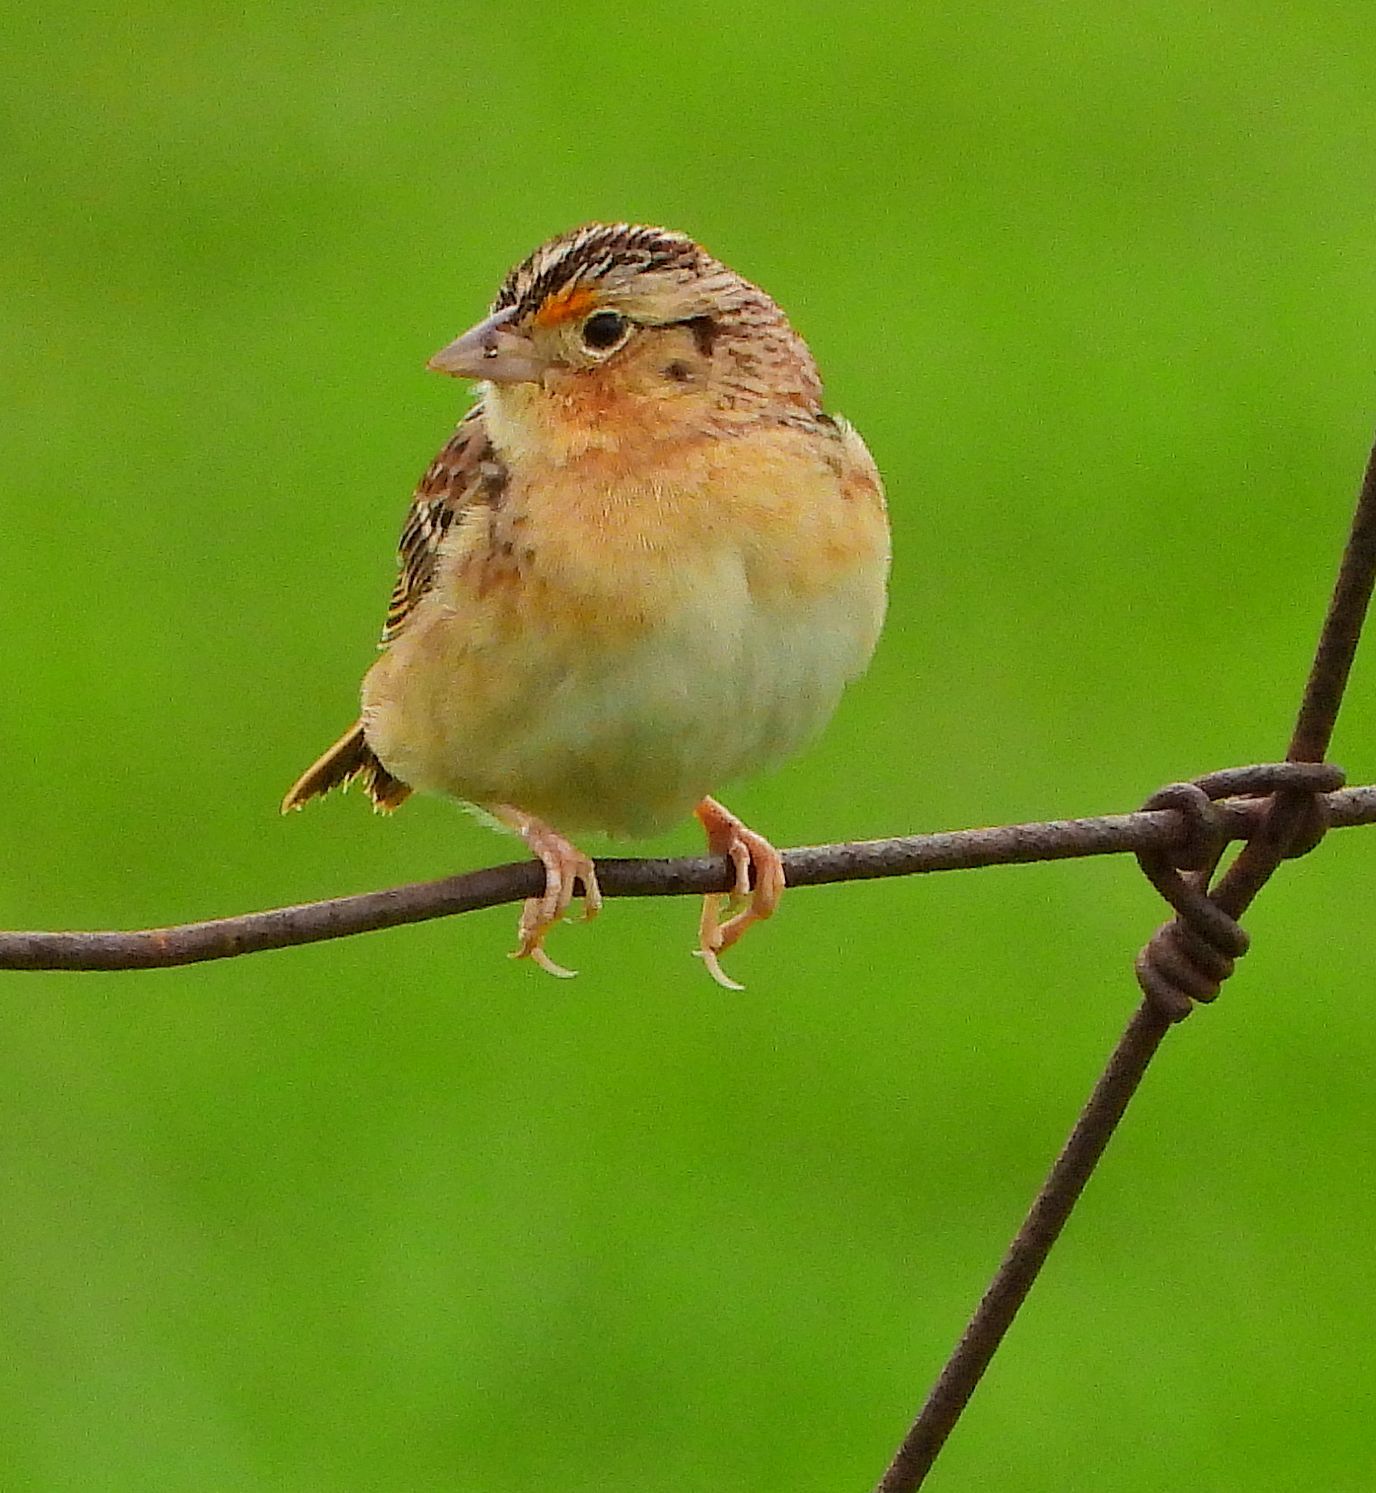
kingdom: Animalia
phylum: Chordata
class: Aves
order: Passeriformes
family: Passerellidae
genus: Ammodramus
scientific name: Ammodramus savannarum
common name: Grasshopper sparrow
